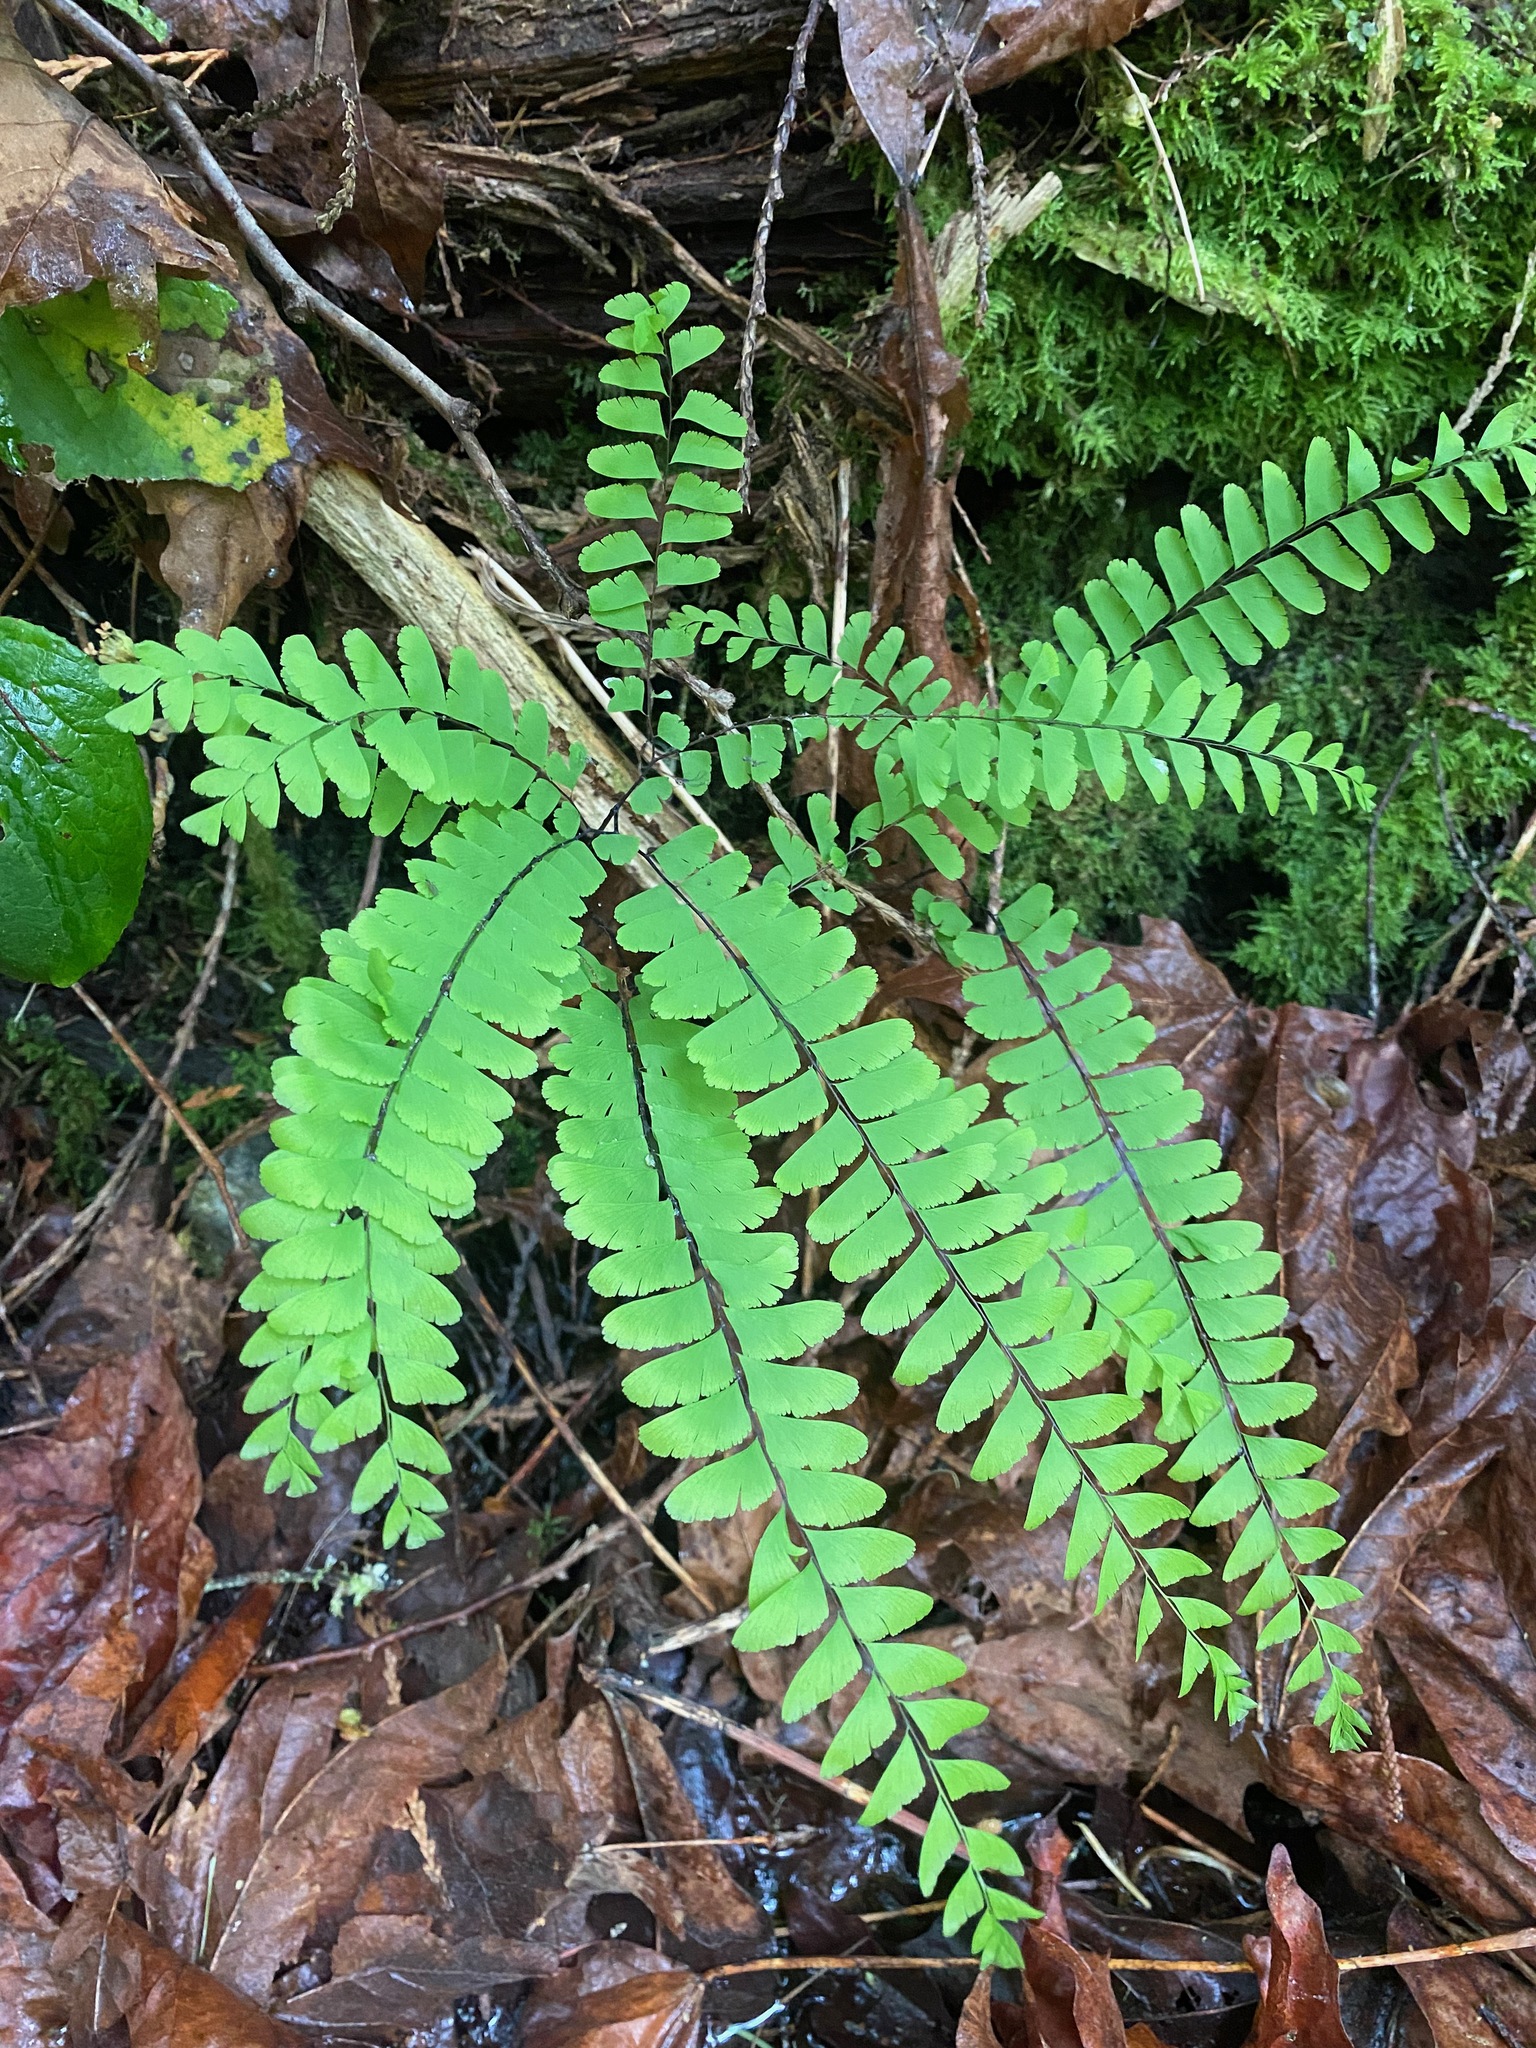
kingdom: Plantae
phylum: Tracheophyta
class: Polypodiopsida
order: Polypodiales
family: Pteridaceae
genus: Adiantum
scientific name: Adiantum aleuticum
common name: Aleutian maidenhair fern
